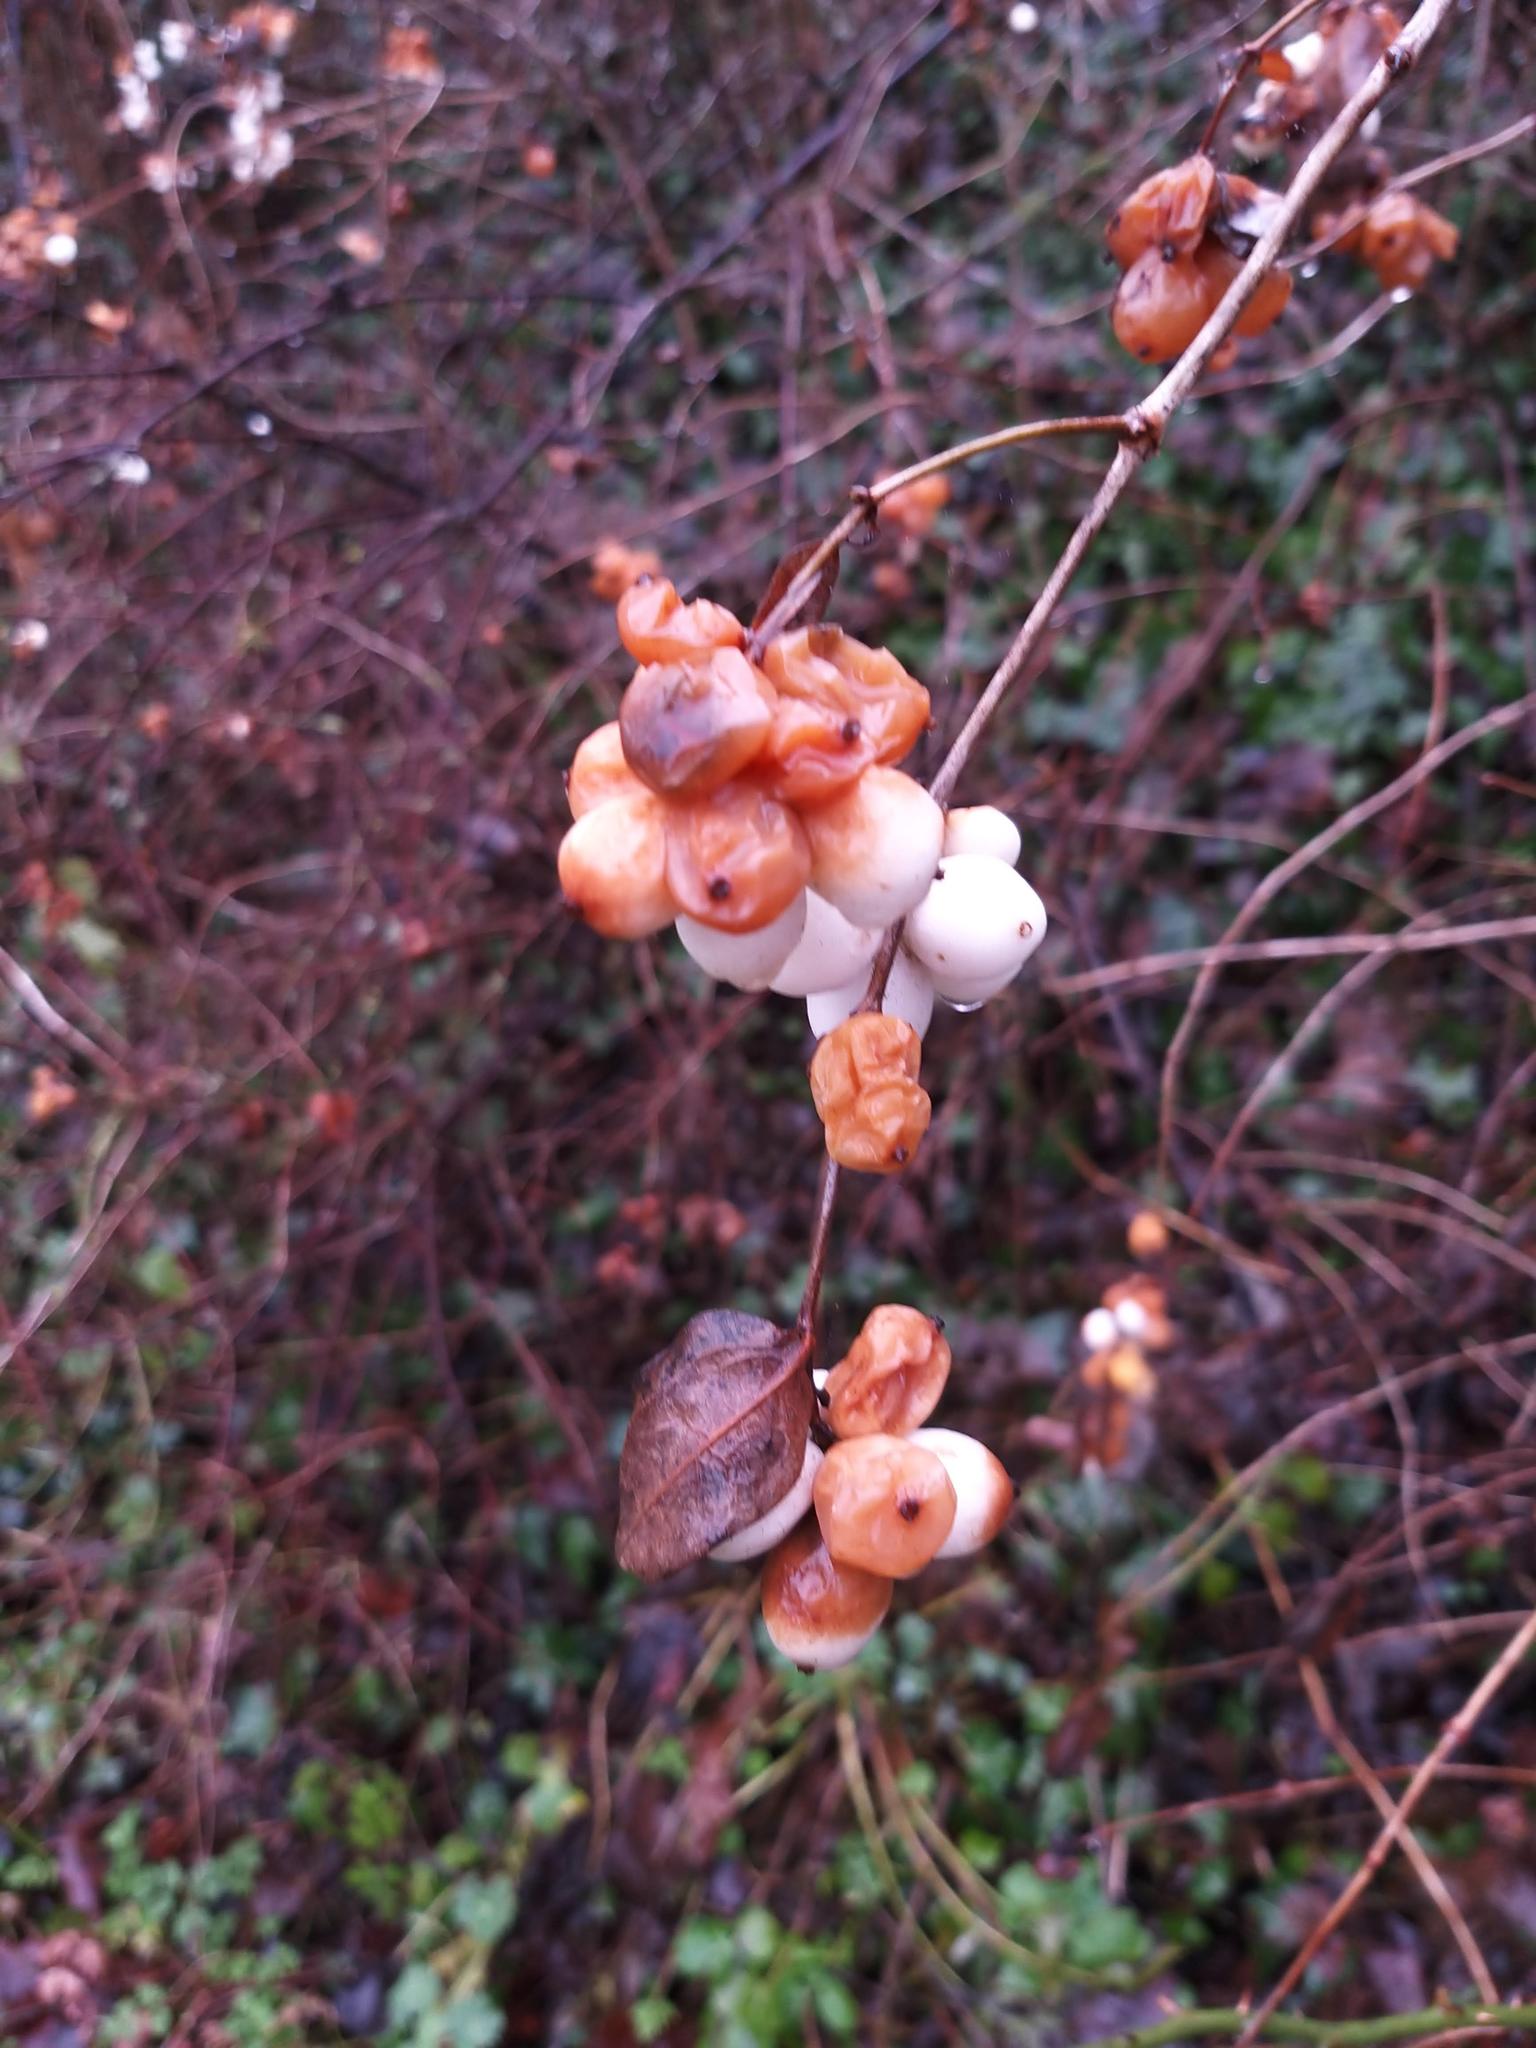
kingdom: Plantae
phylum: Tracheophyta
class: Magnoliopsida
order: Dipsacales
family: Caprifoliaceae
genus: Symphoricarpos
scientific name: Symphoricarpos albus
